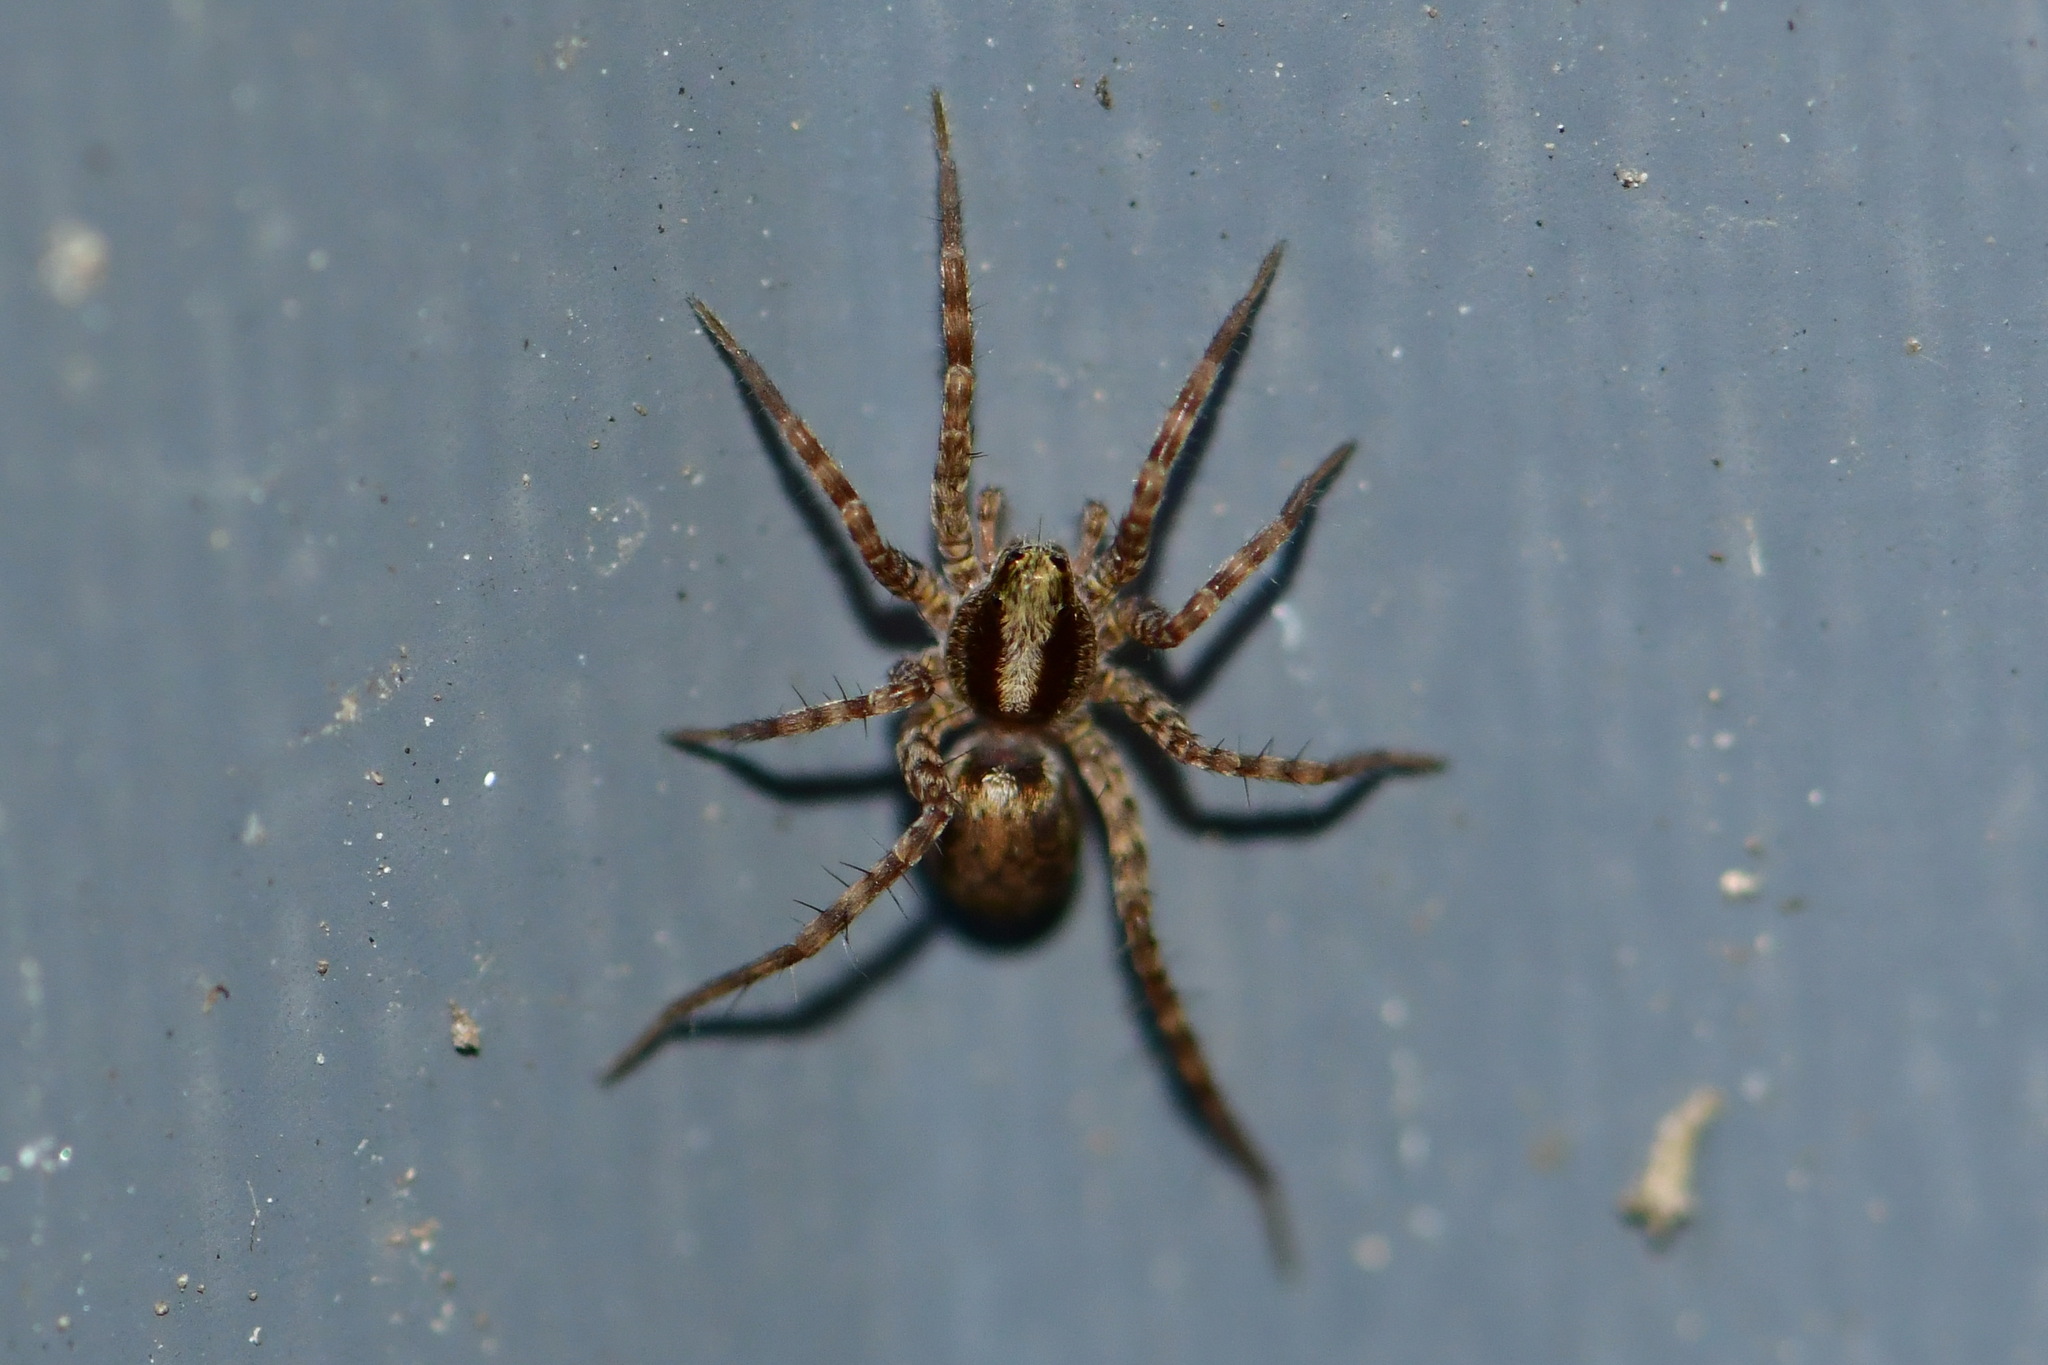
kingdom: Animalia
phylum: Arthropoda
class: Arachnida
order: Araneae
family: Lycosidae
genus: Pardosa
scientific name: Pardosa
